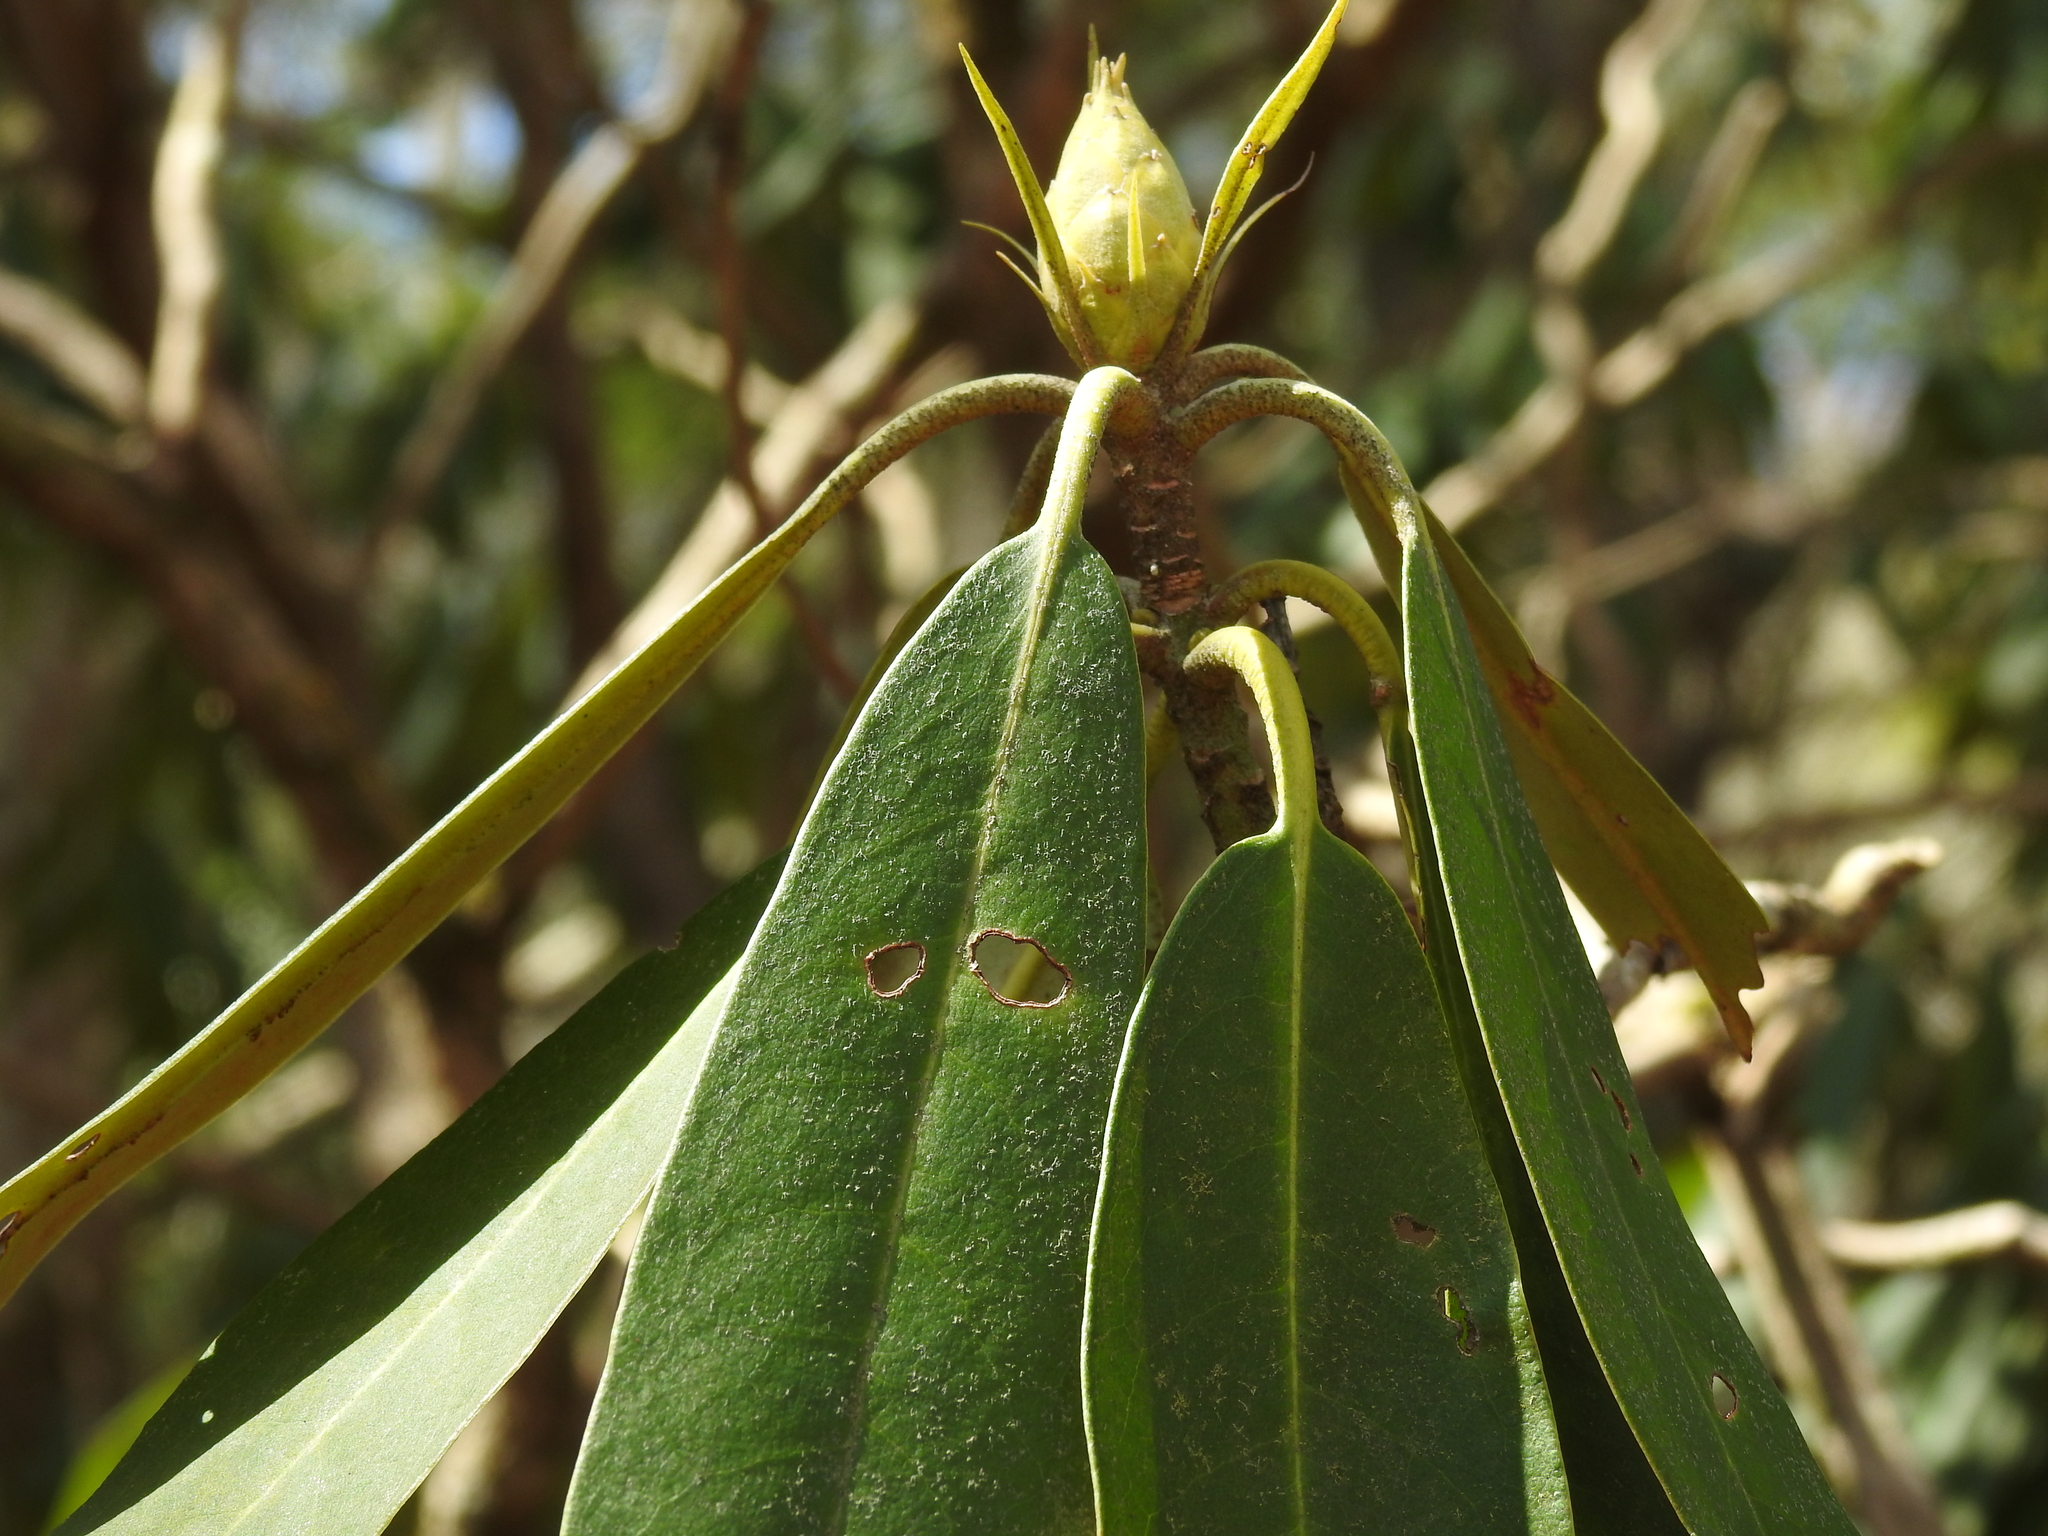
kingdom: Plantae
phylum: Tracheophyta
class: Magnoliopsida
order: Ericales
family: Ericaceae
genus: Rhododendron
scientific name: Rhododendron maximum
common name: Great rhododendron
